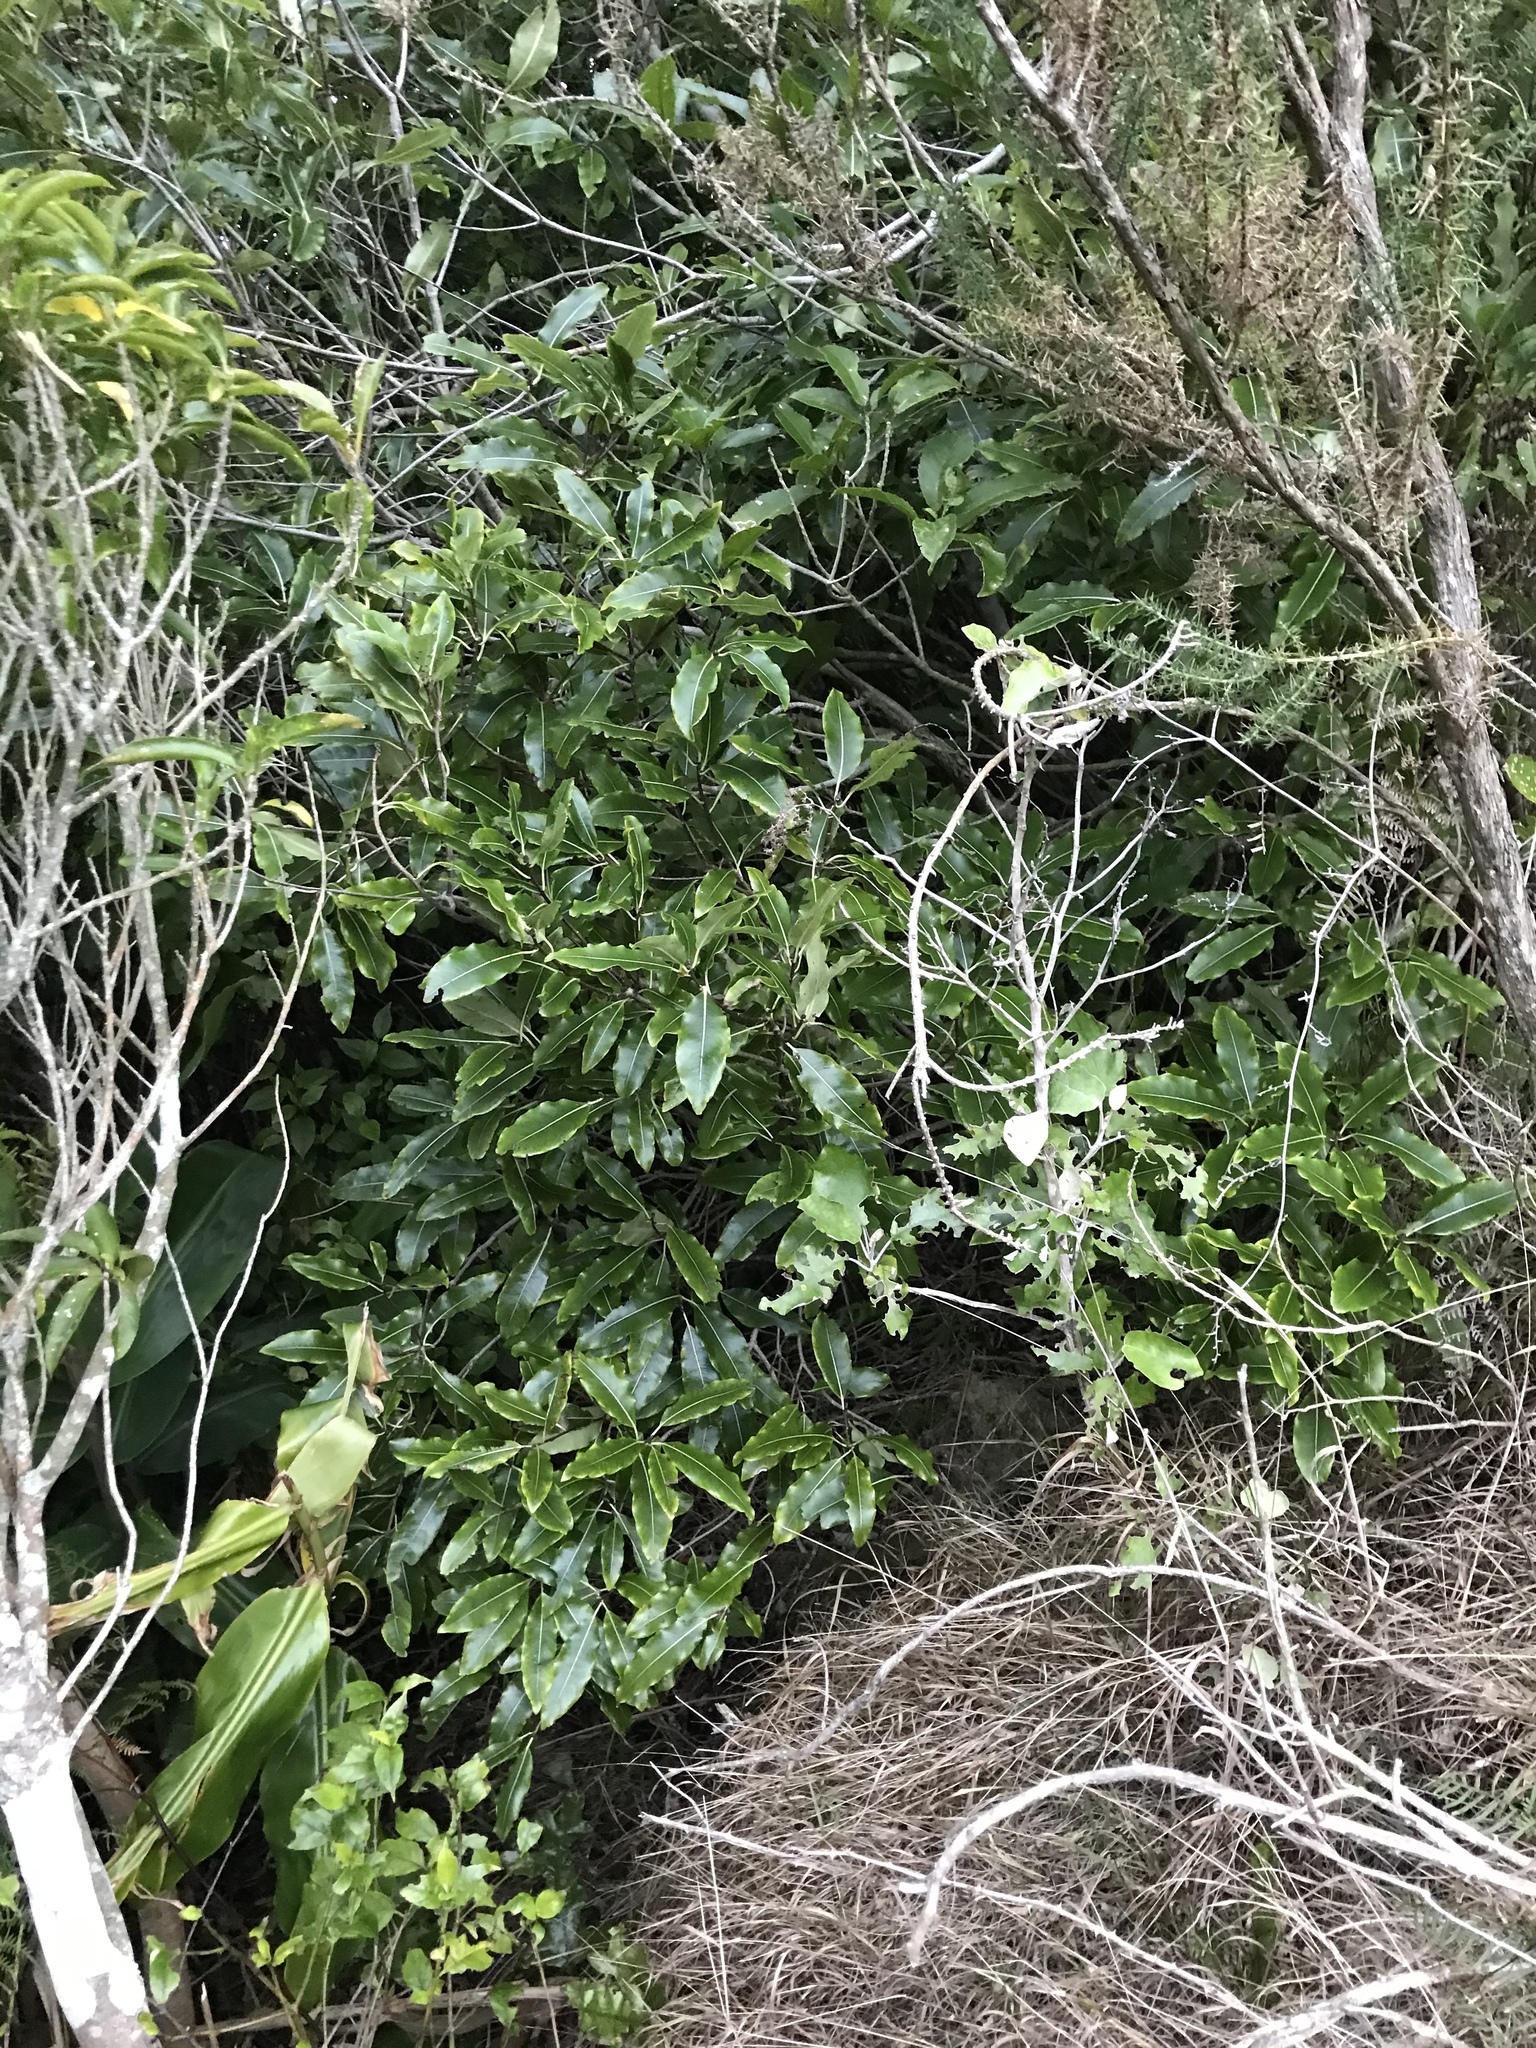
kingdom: Plantae
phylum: Tracheophyta
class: Magnoliopsida
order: Apiales
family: Pittosporaceae
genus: Pittosporum
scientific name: Pittosporum eugenioides
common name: Lemonwood
